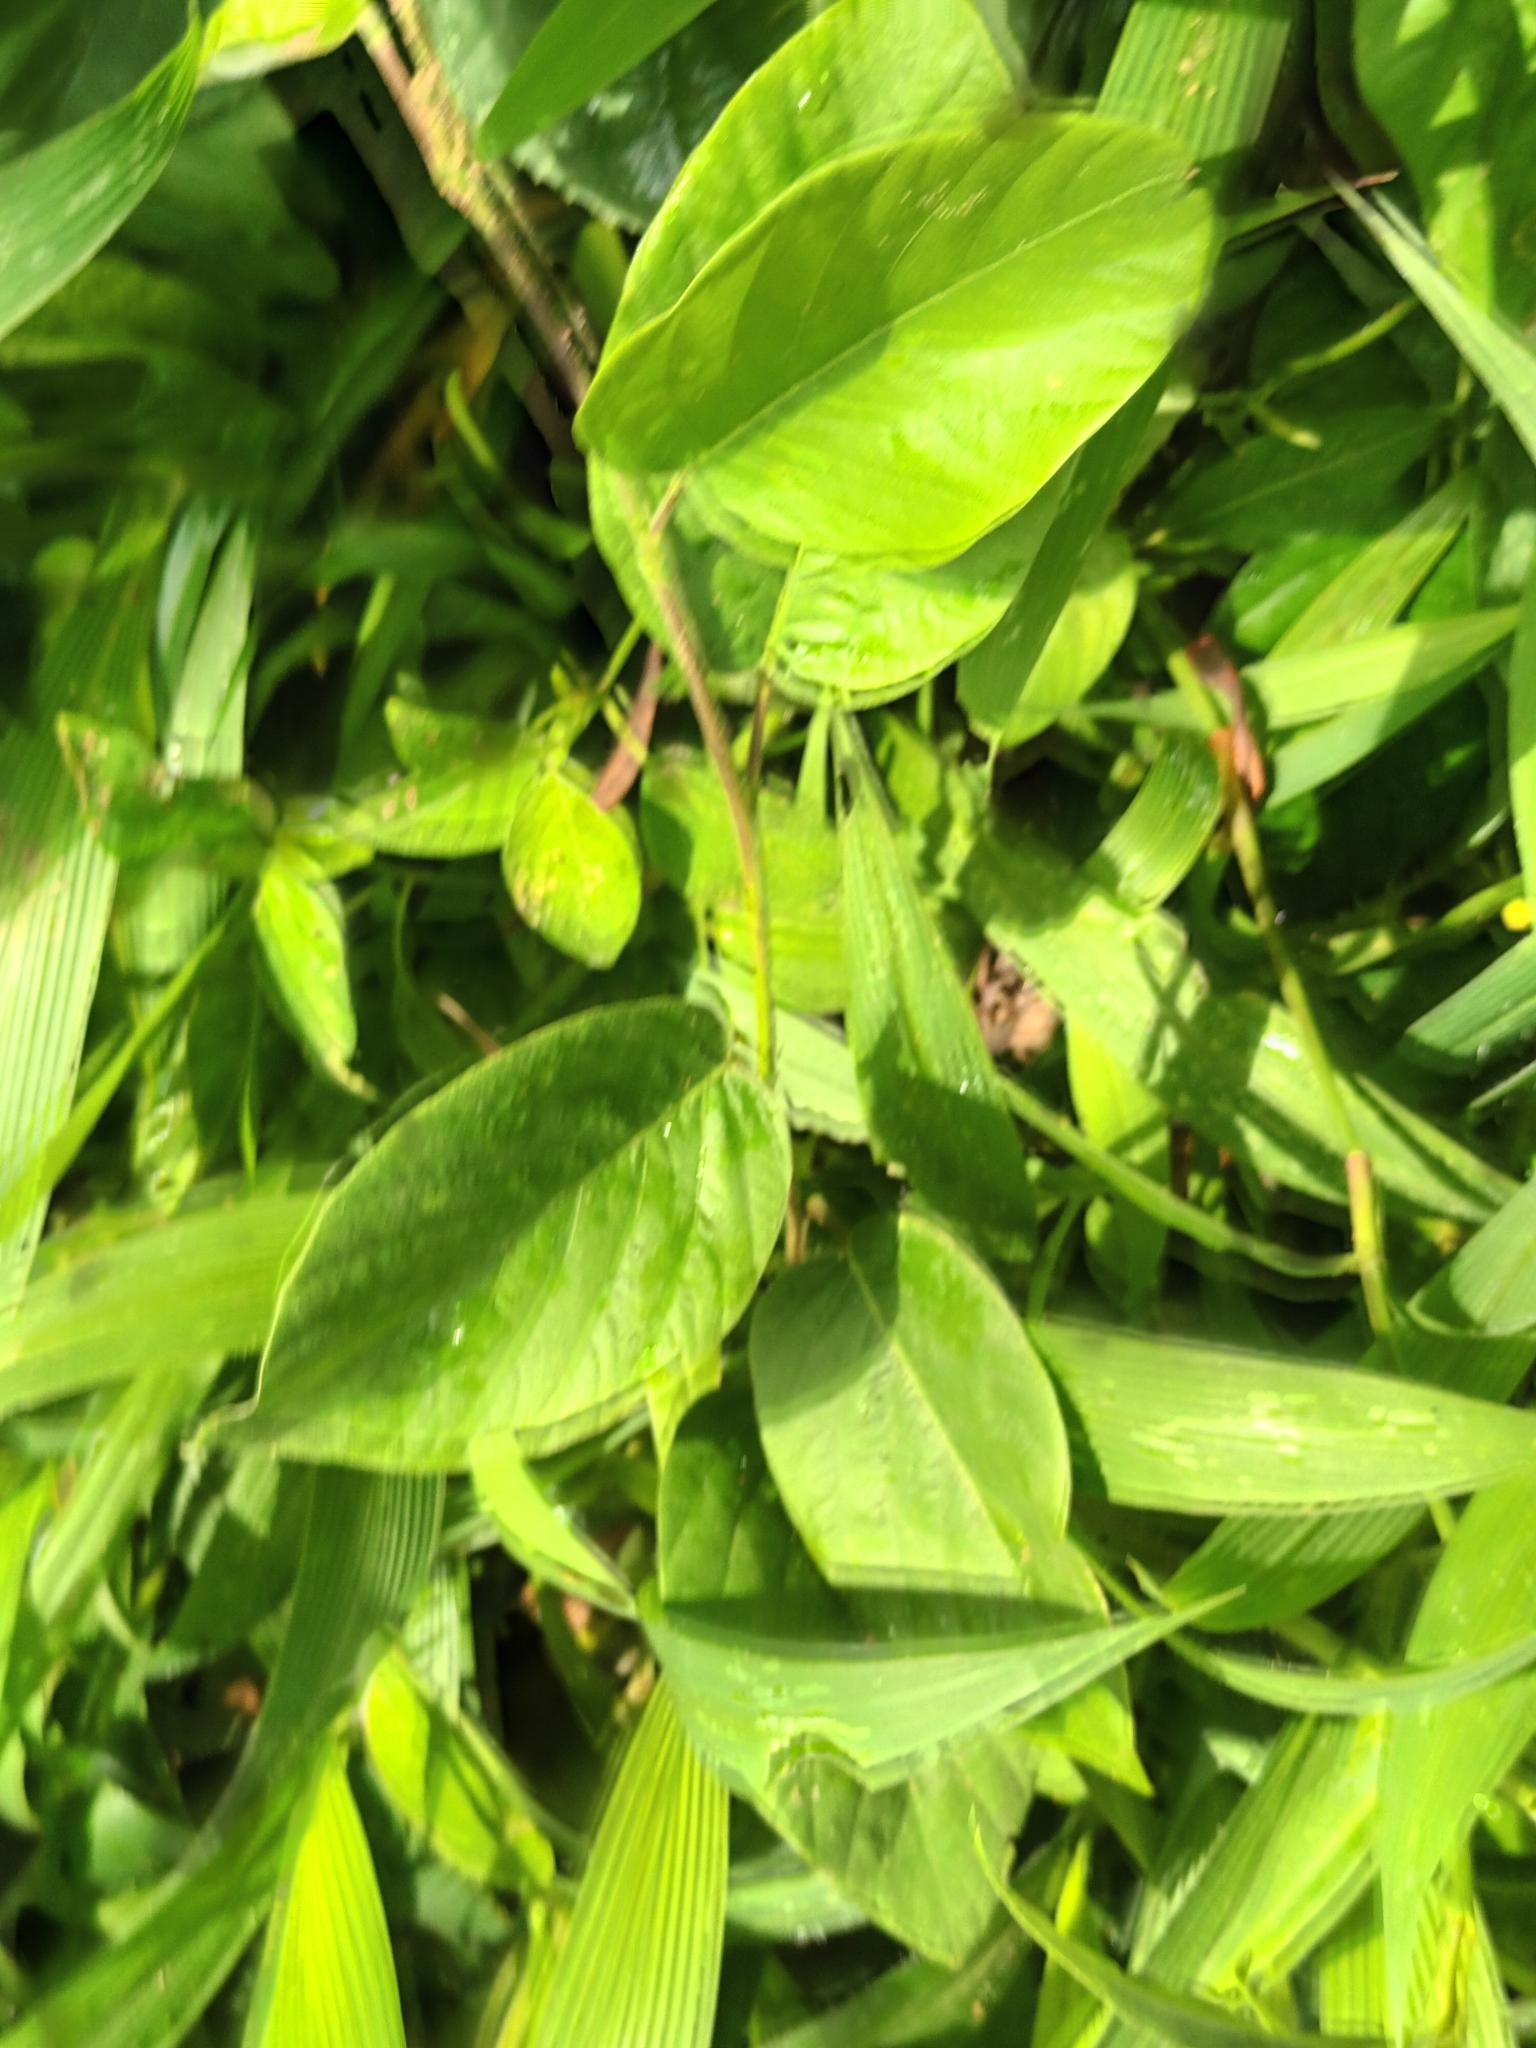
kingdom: Plantae
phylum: Tracheophyta
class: Magnoliopsida
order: Fabales
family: Fabaceae
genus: Pleurolobus
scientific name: Pleurolobus gangeticus
